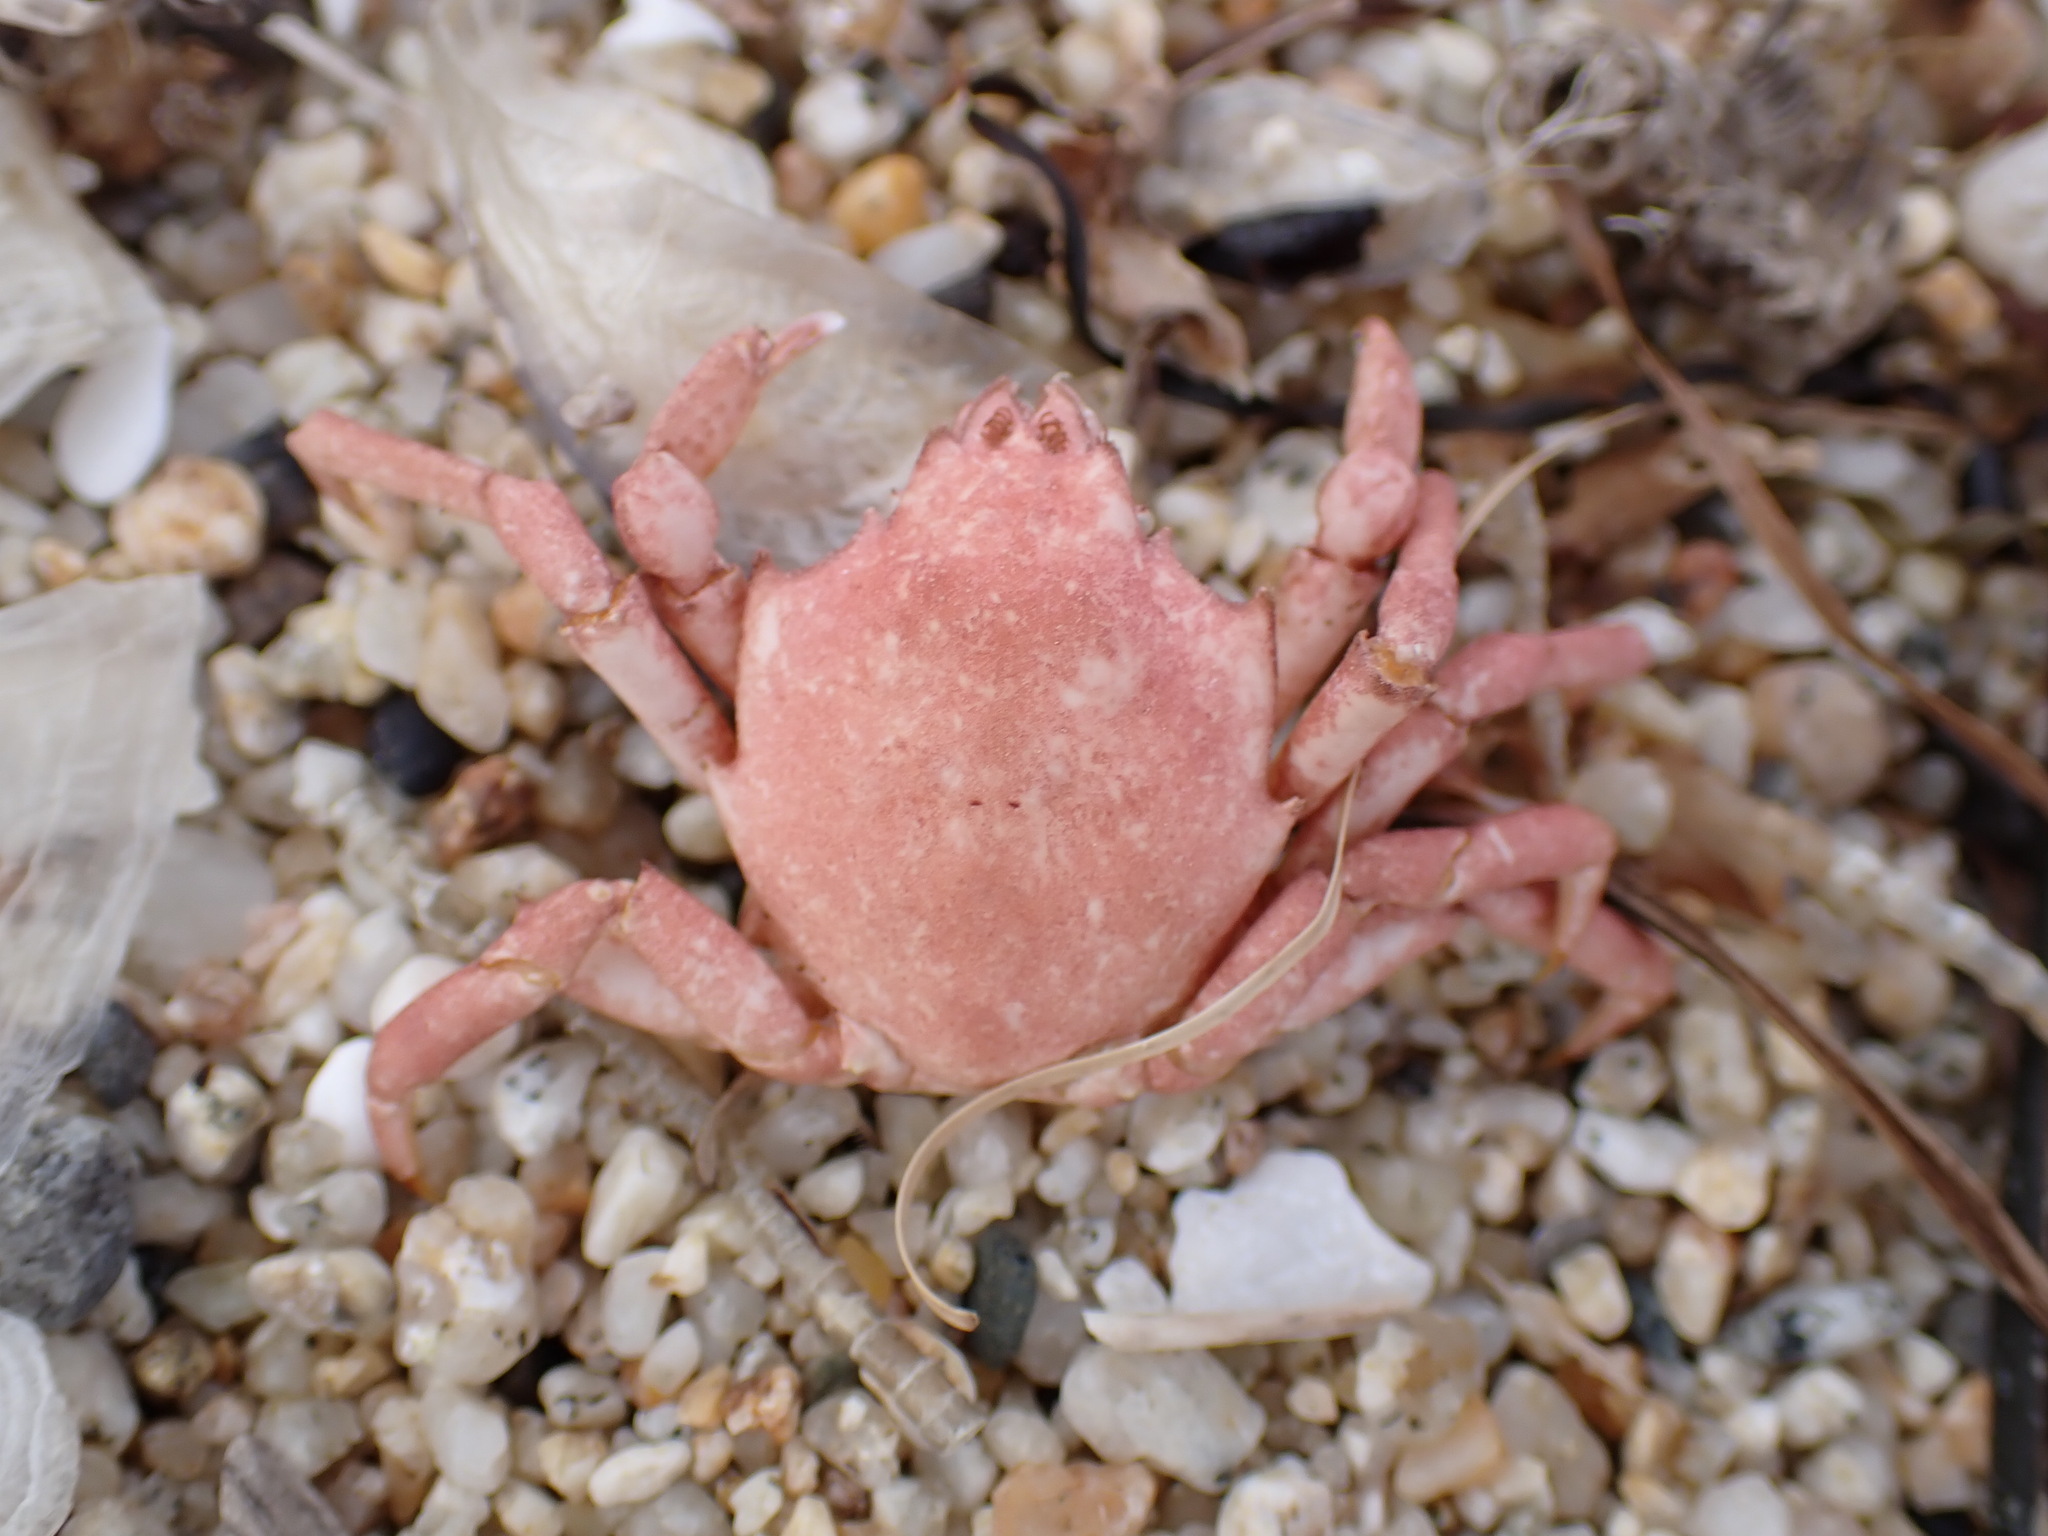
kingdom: Animalia
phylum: Arthropoda
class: Malacostraca
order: Decapoda
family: Epialtidae
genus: Pugettia
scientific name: Pugettia producta
